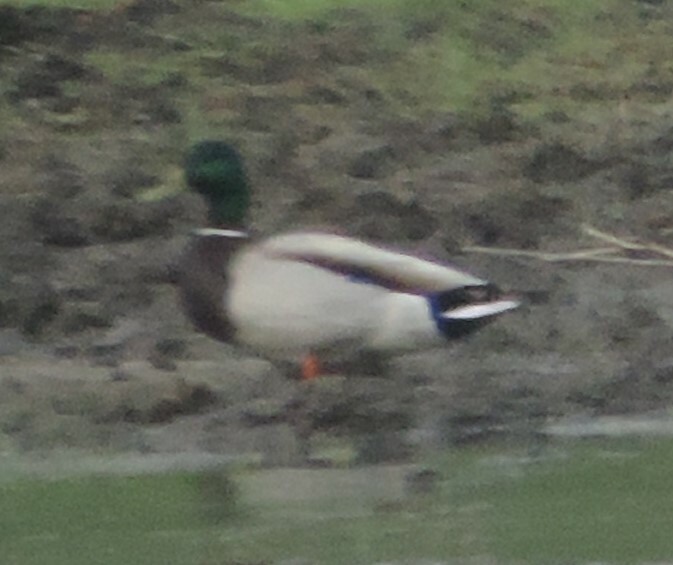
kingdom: Animalia
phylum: Chordata
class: Aves
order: Anseriformes
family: Anatidae
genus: Anas
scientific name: Anas platyrhynchos
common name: Mallard
